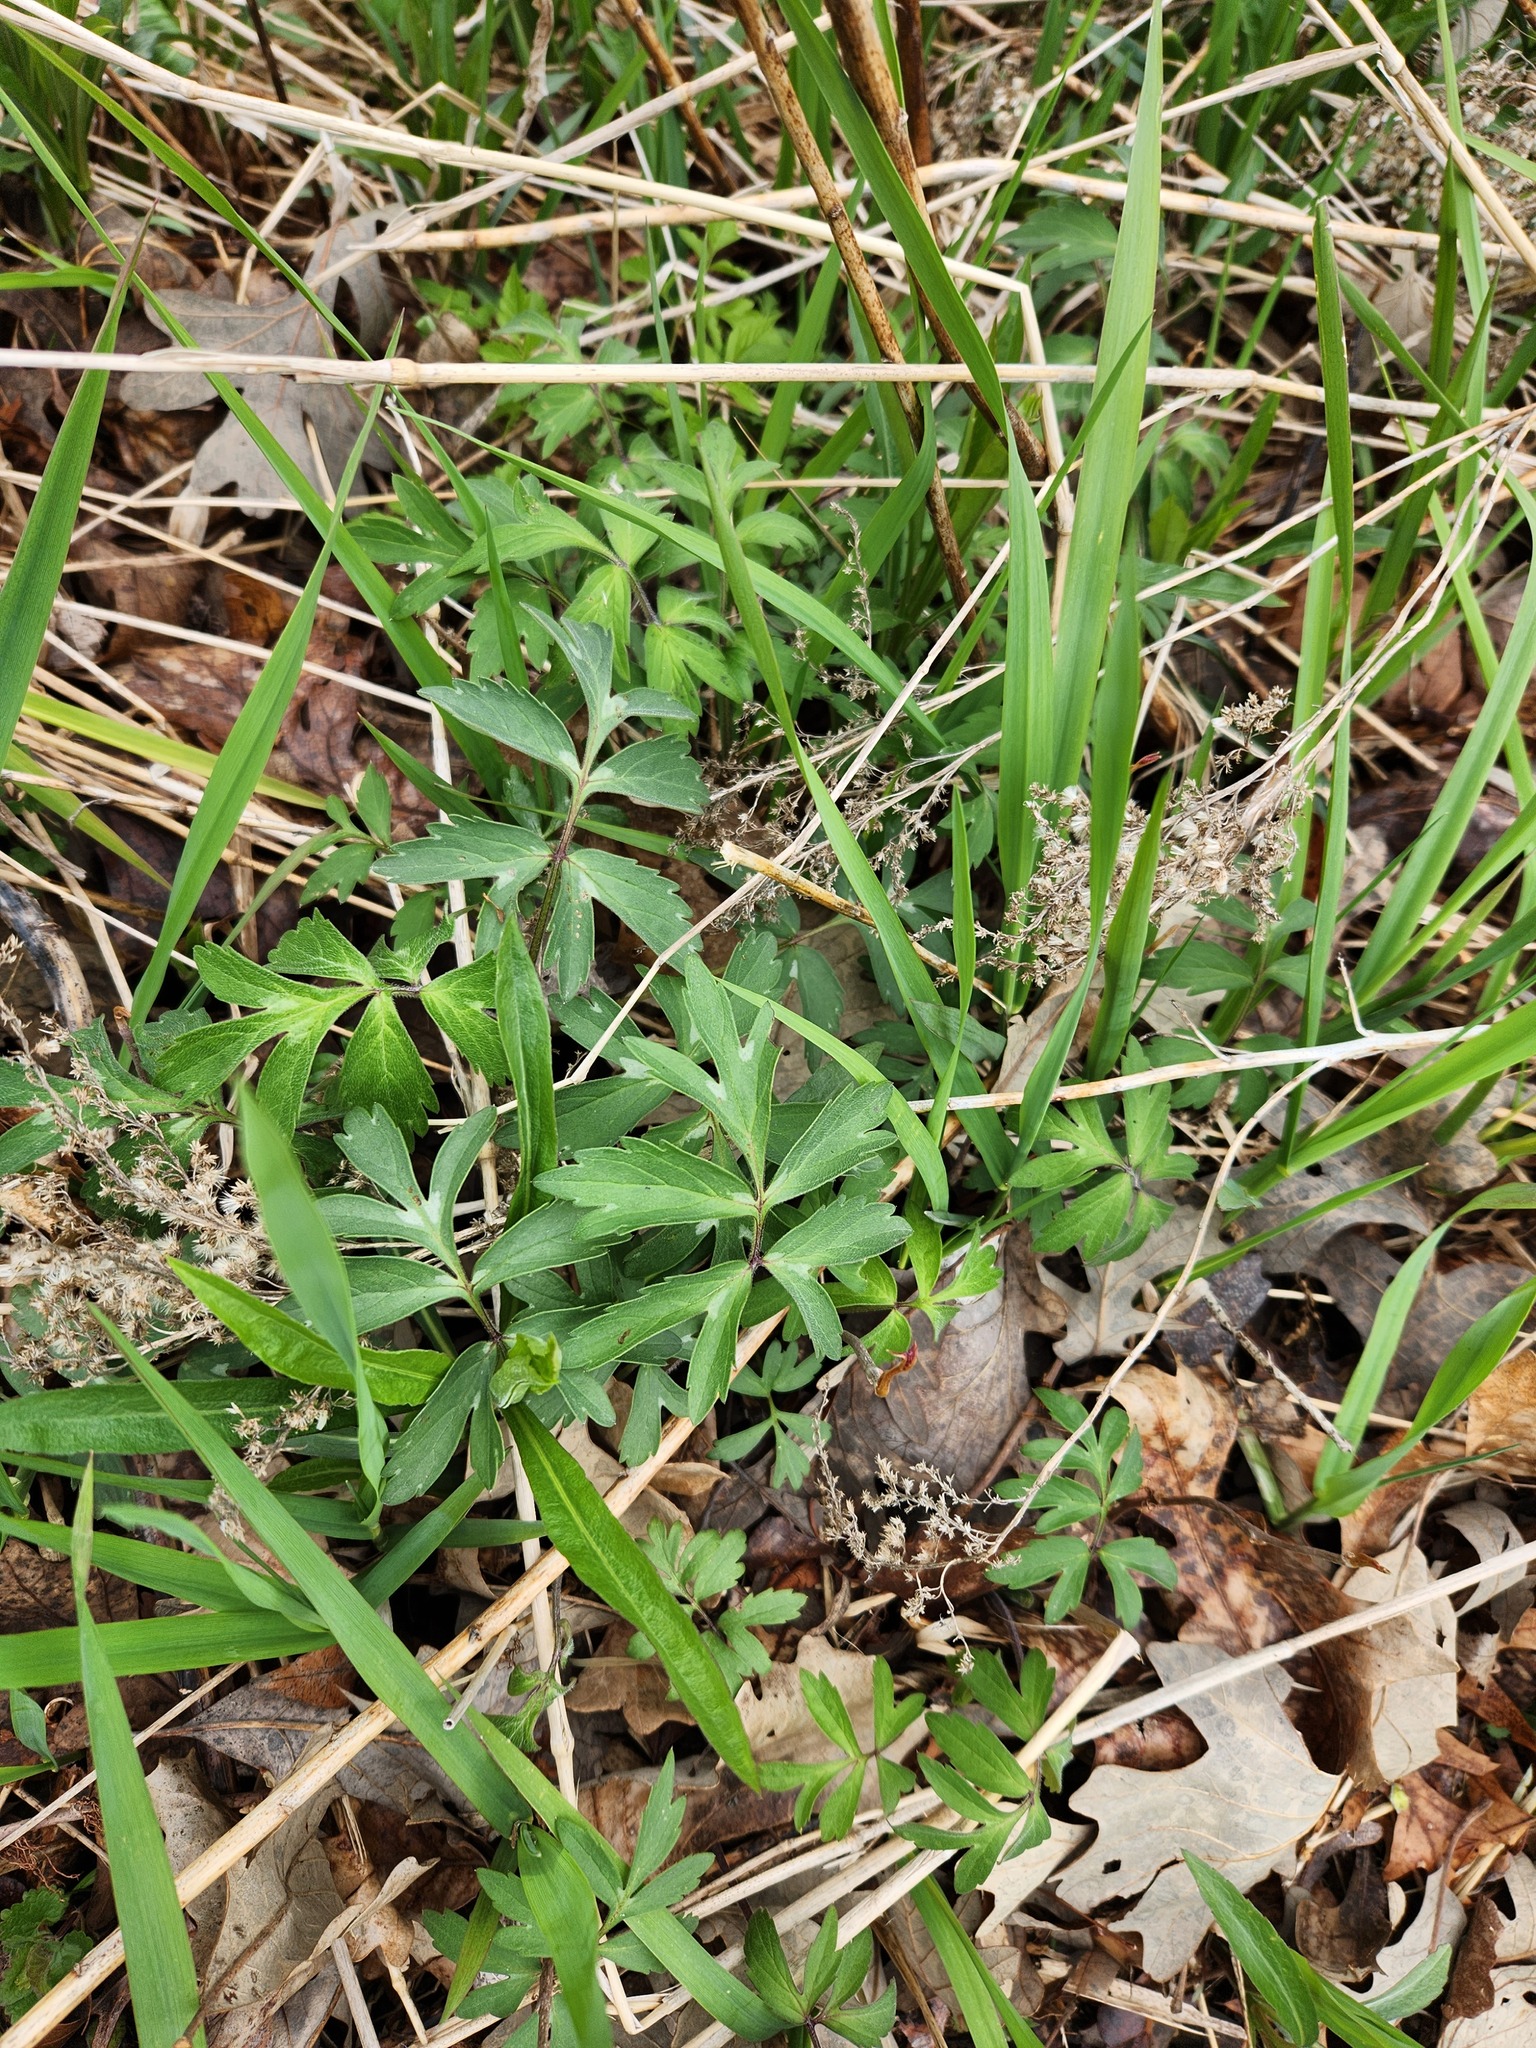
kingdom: Plantae
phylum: Tracheophyta
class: Magnoliopsida
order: Boraginales
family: Hydrophyllaceae
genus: Hydrophyllum
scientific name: Hydrophyllum virginianum
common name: Virginia waterleaf
